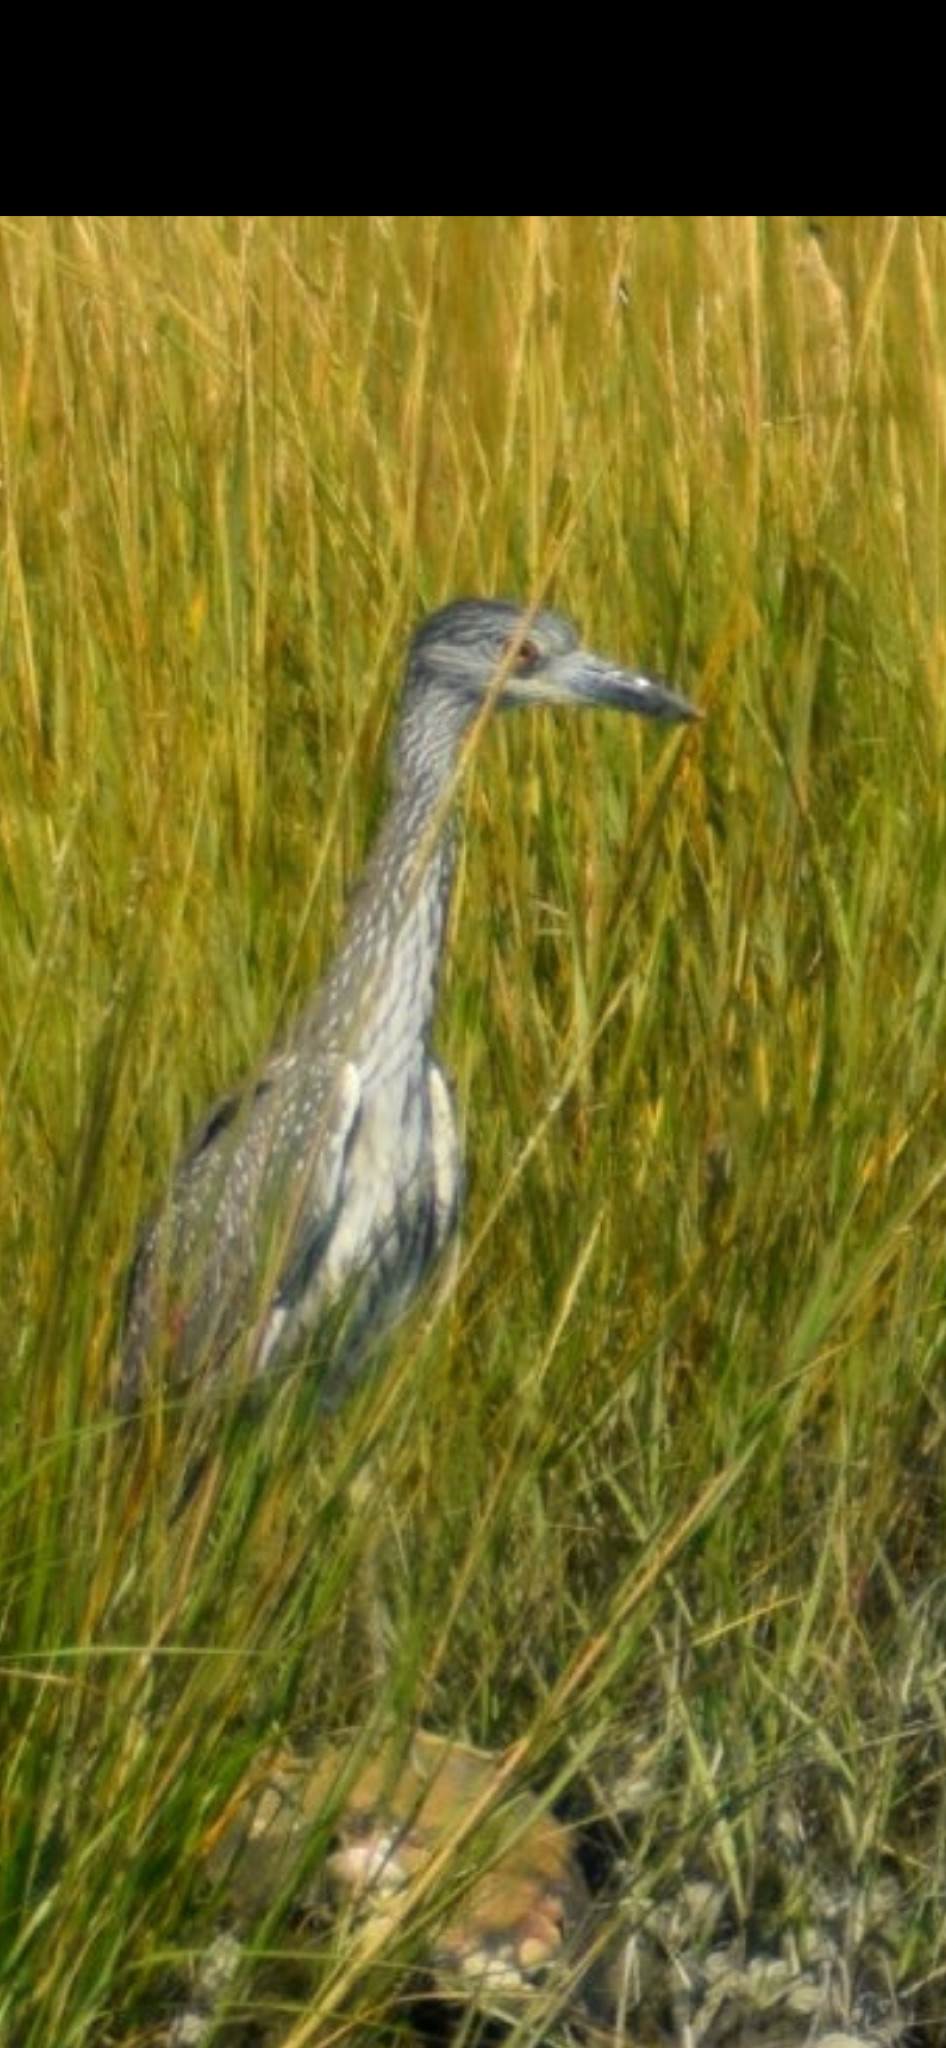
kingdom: Animalia
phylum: Chordata
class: Aves
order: Pelecaniformes
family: Ardeidae
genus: Nyctanassa
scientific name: Nyctanassa violacea
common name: Yellow-crowned night heron
